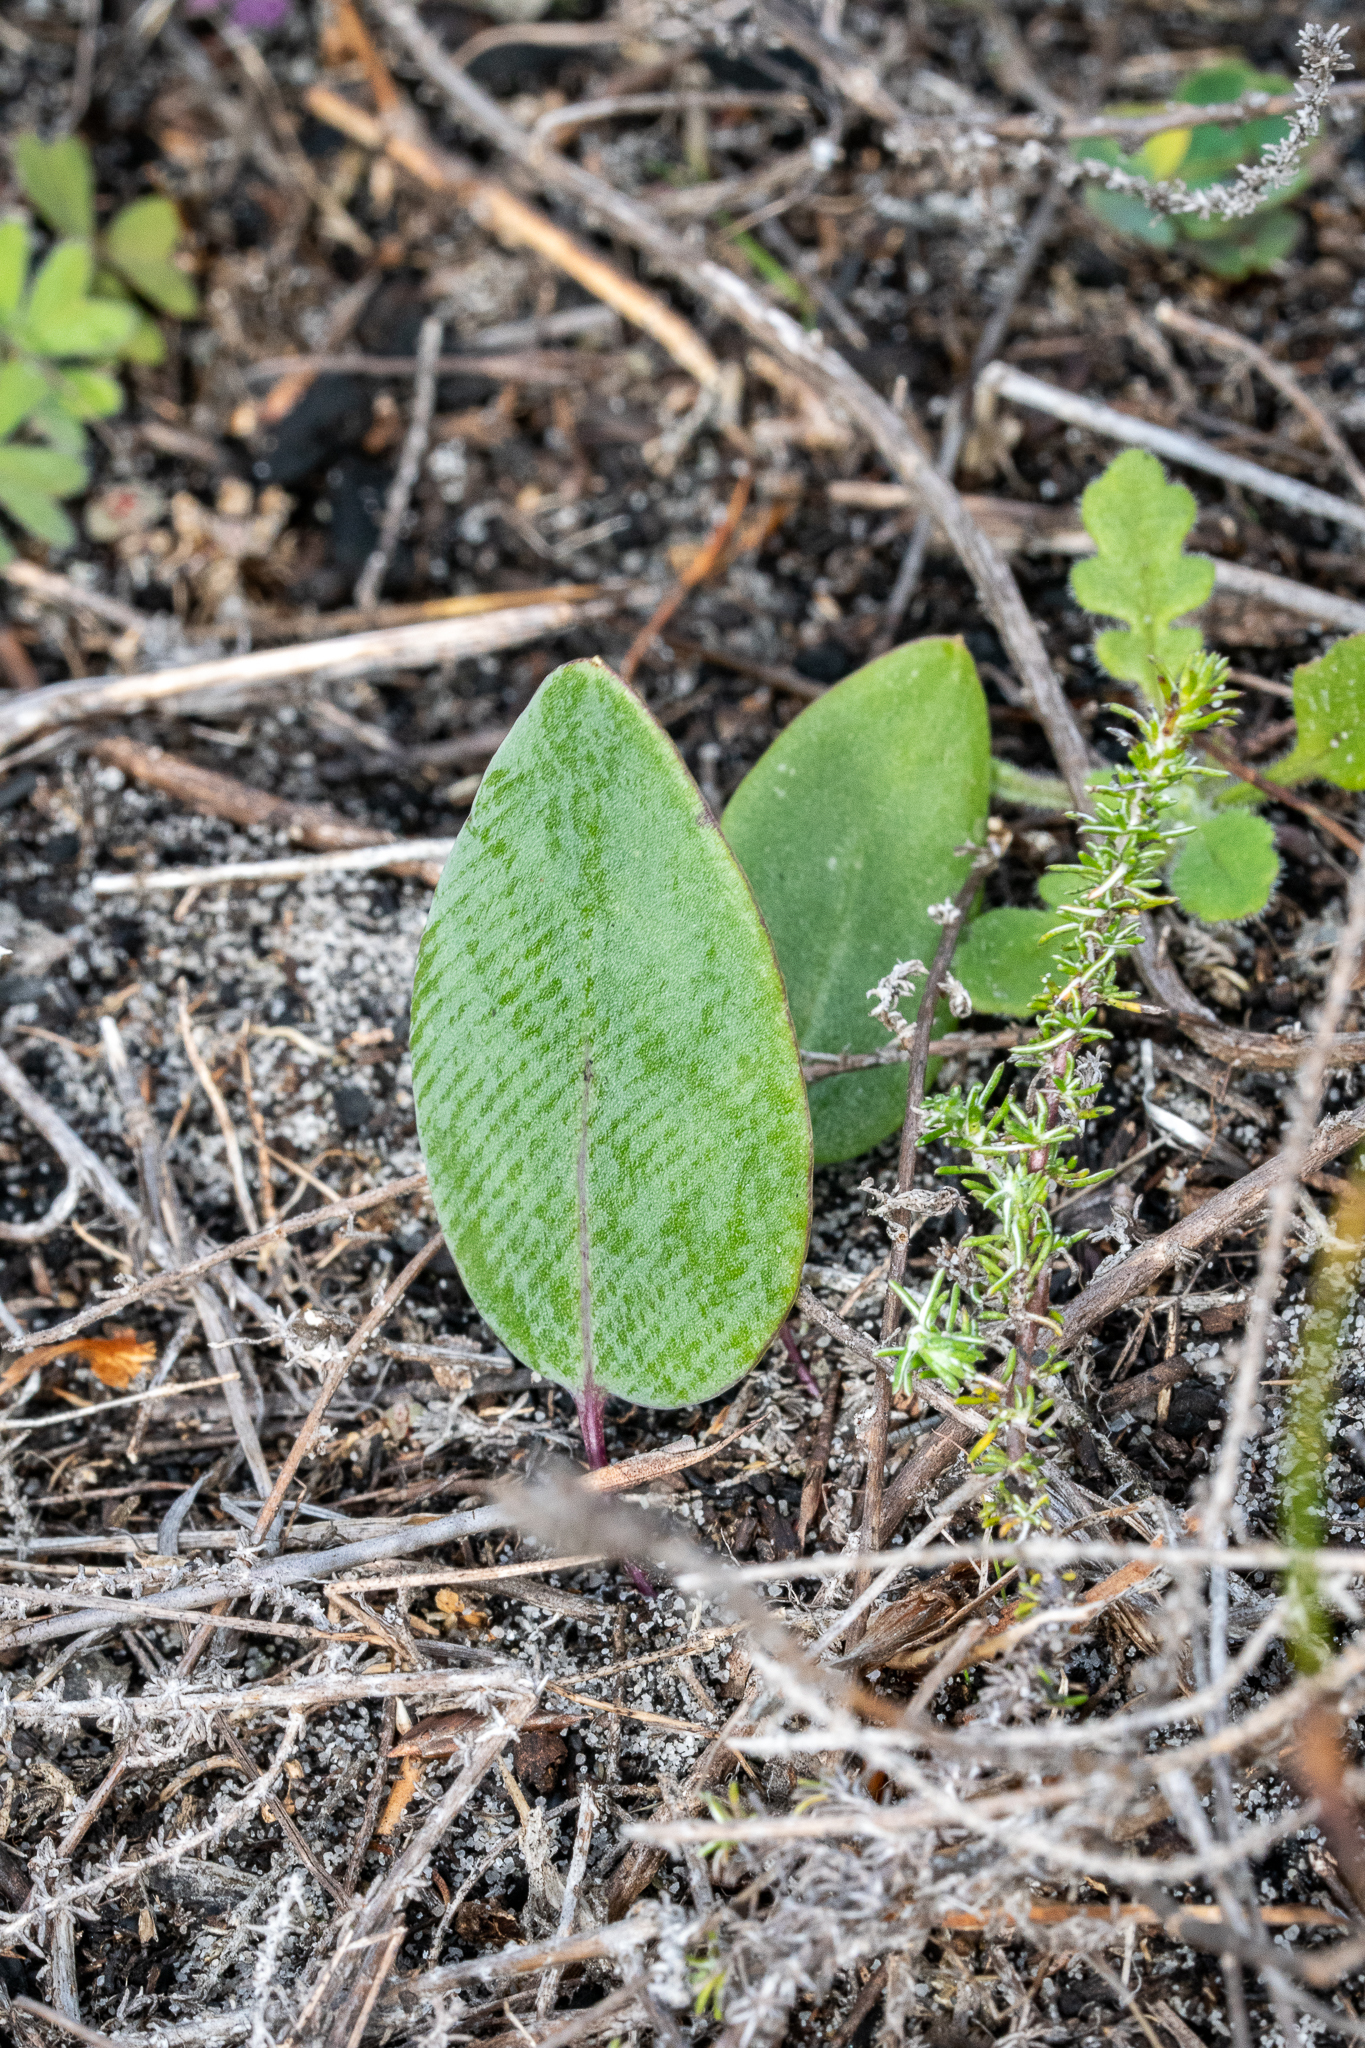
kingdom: Plantae
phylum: Tracheophyta
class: Magnoliopsida
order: Asterales
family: Asteraceae
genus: Othonna
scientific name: Othonna bulbosa
